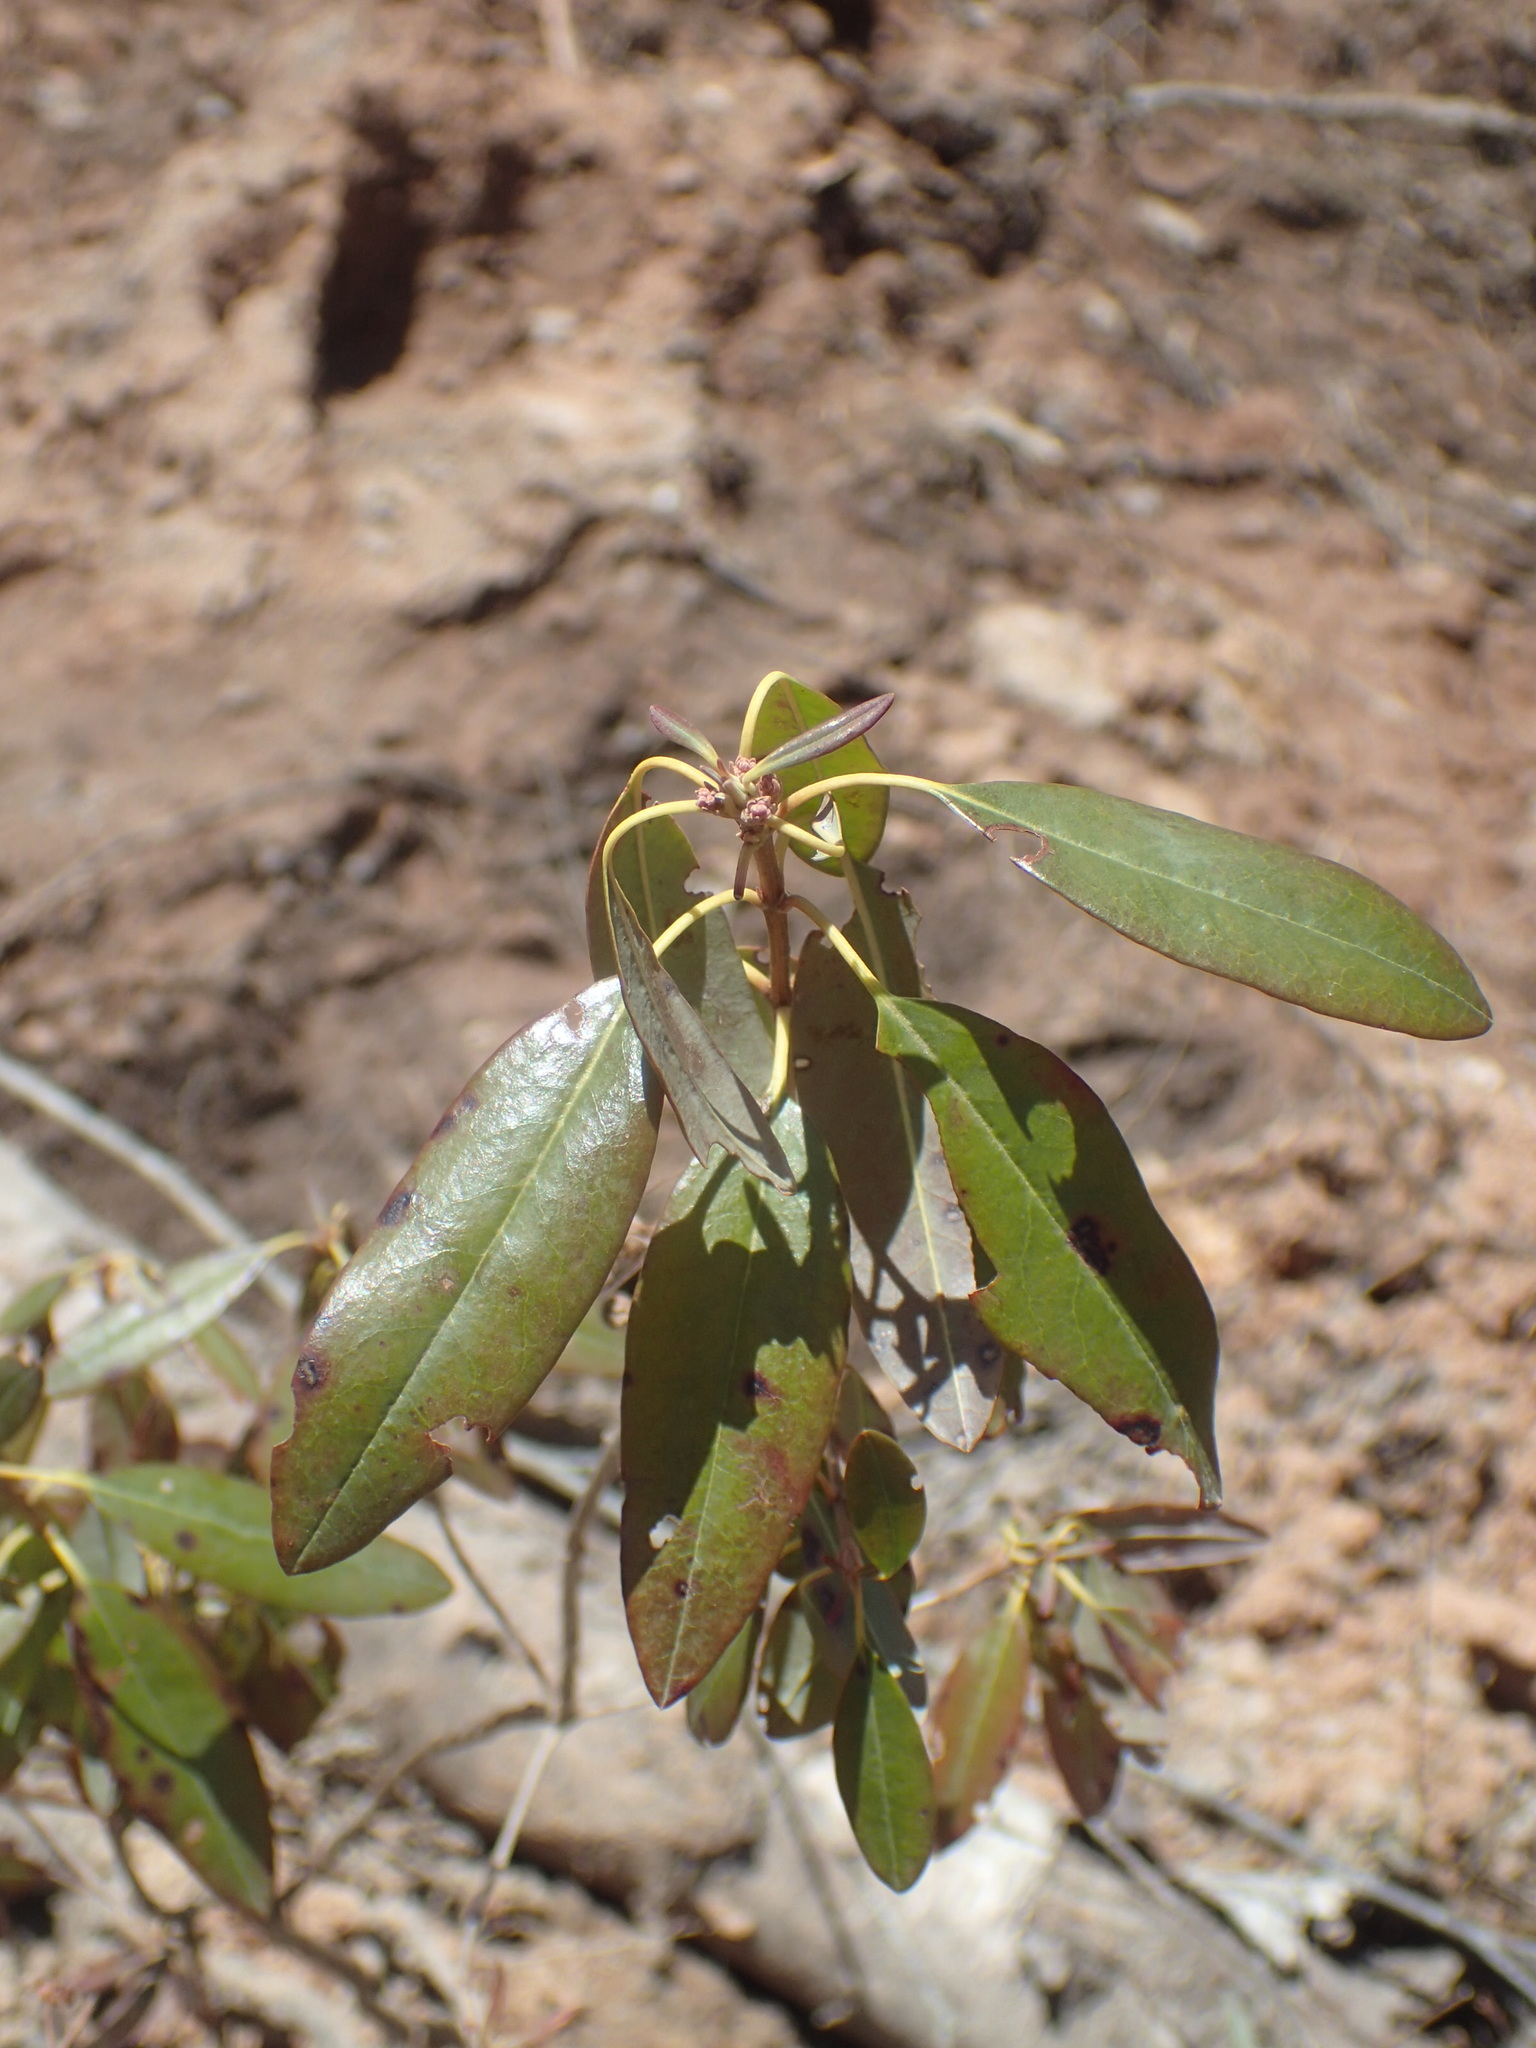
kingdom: Plantae
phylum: Tracheophyta
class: Magnoliopsida
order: Ericales
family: Ericaceae
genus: Kalmia
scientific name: Kalmia angustifolia
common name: Sheep-laurel
